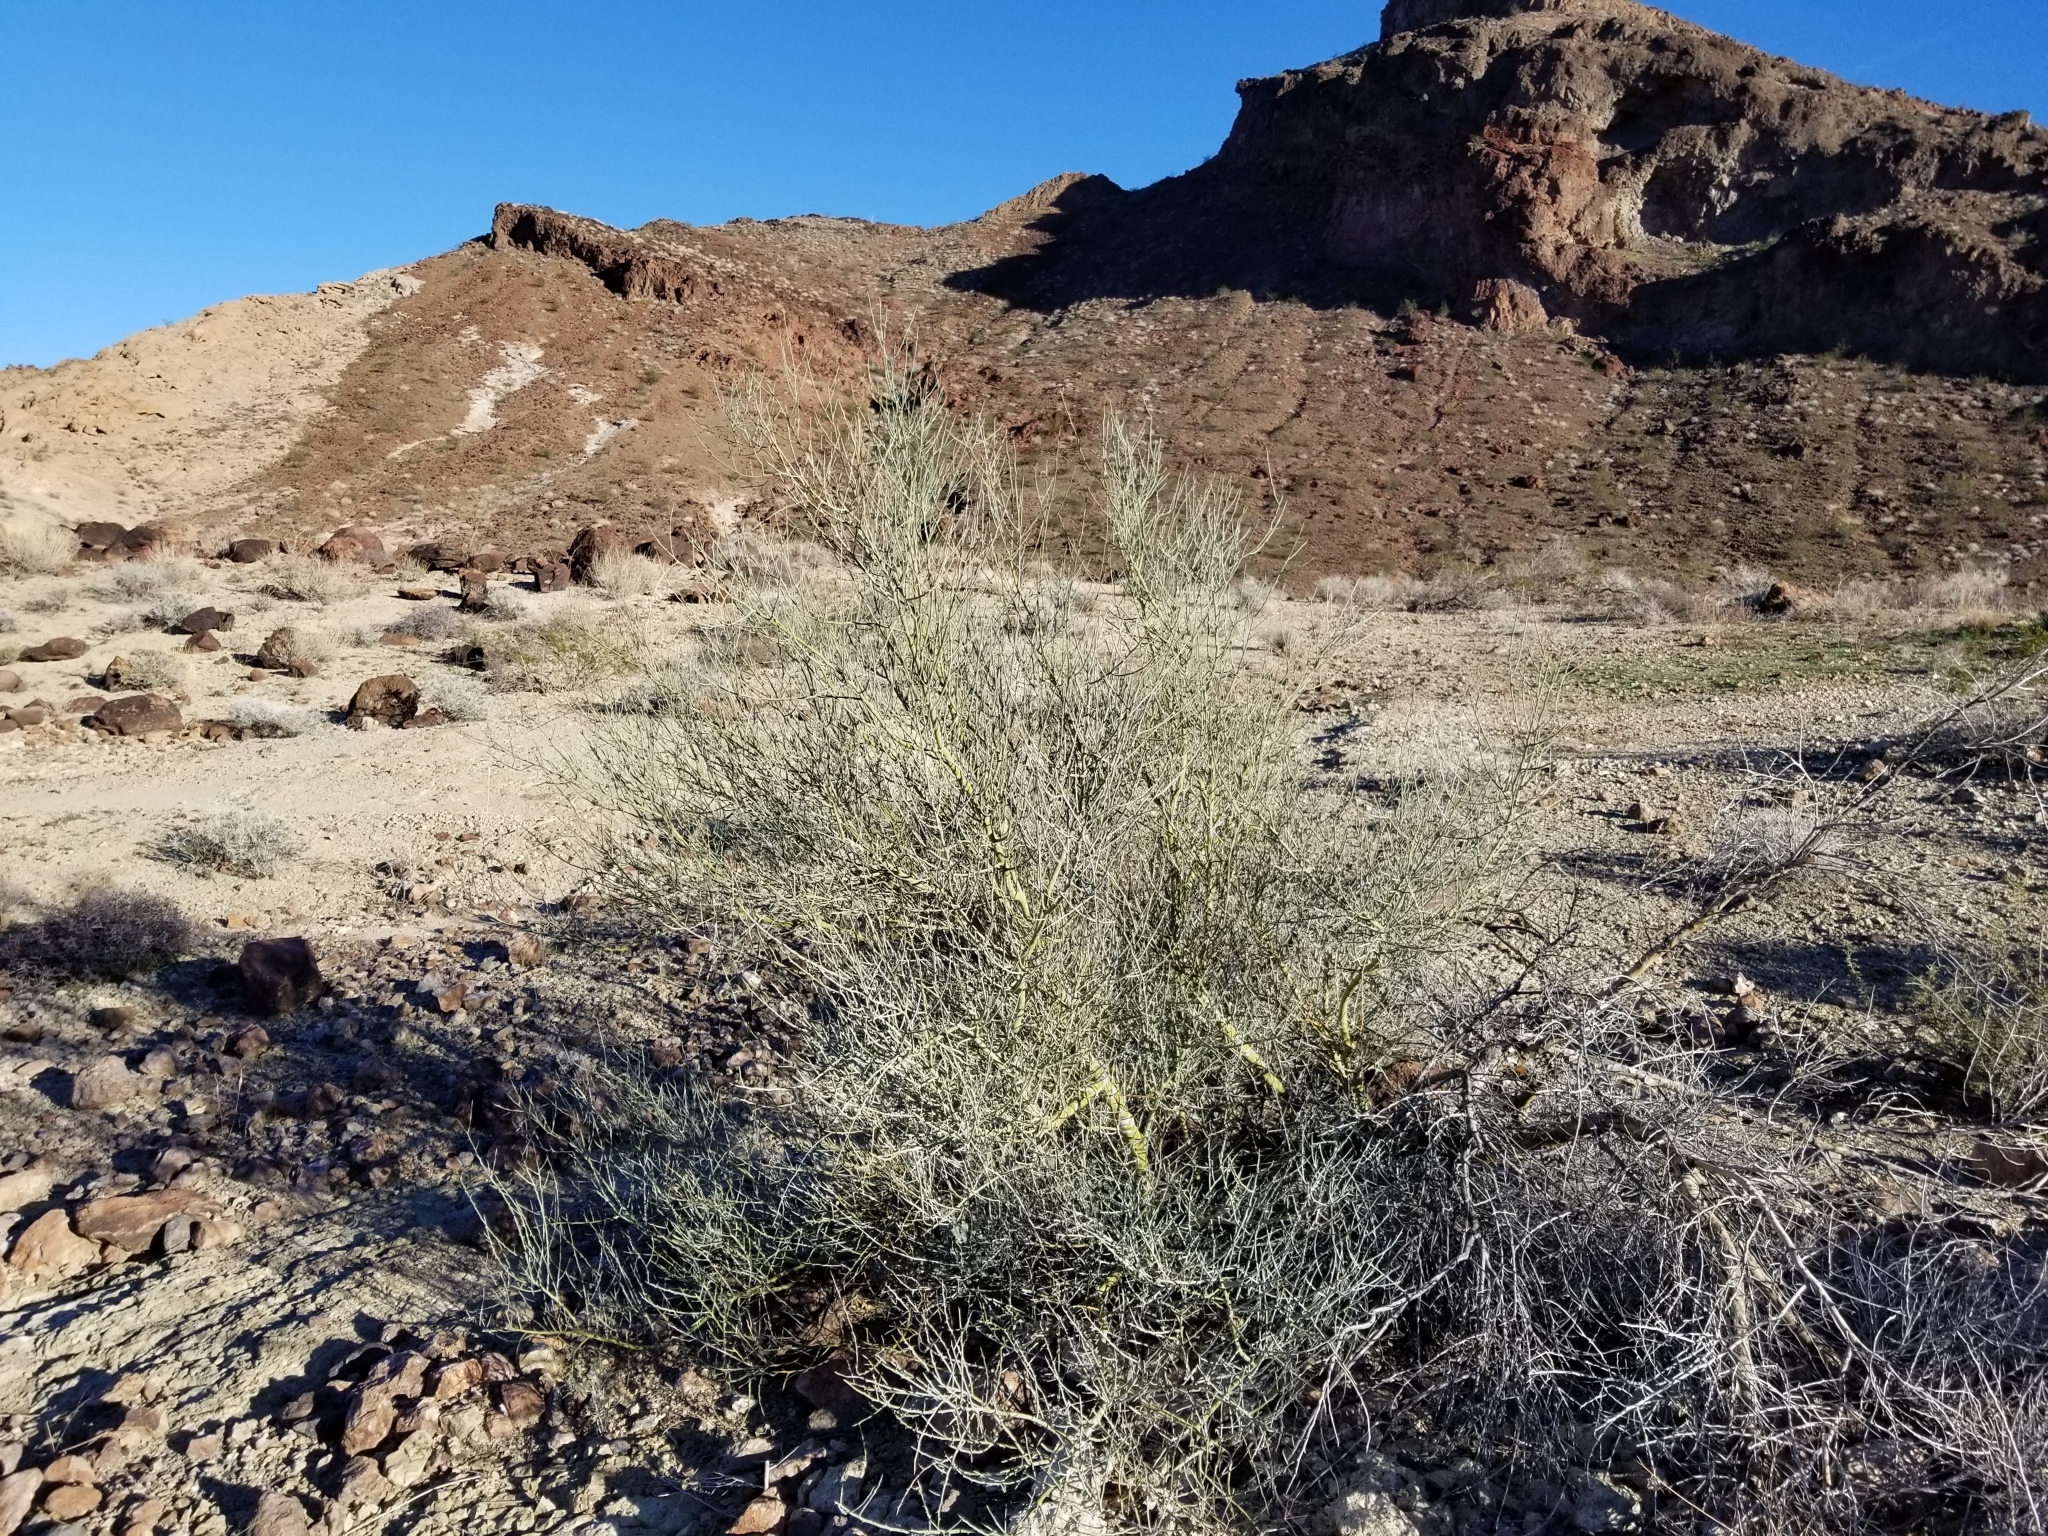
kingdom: Plantae
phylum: Tracheophyta
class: Magnoliopsida
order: Fabales
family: Fabaceae
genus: Parkinsonia
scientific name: Parkinsonia florida
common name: Blue paloverde
